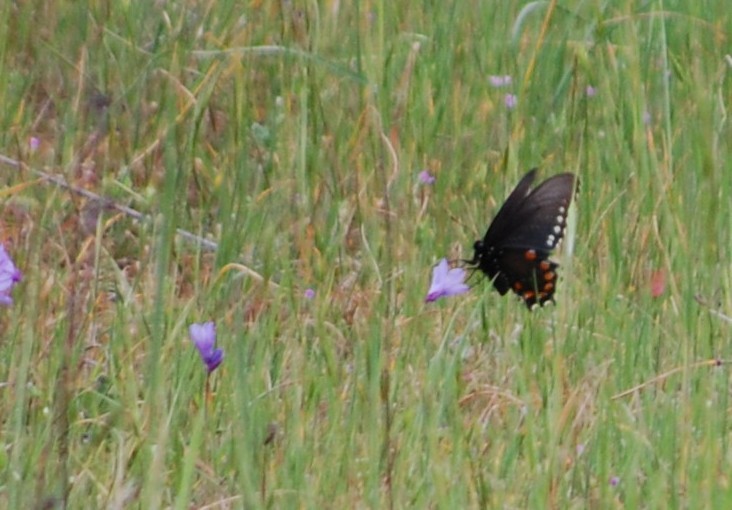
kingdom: Animalia
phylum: Arthropoda
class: Insecta
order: Lepidoptera
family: Papilionidae
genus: Battus
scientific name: Battus philenor
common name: Pipevine swallowtail
